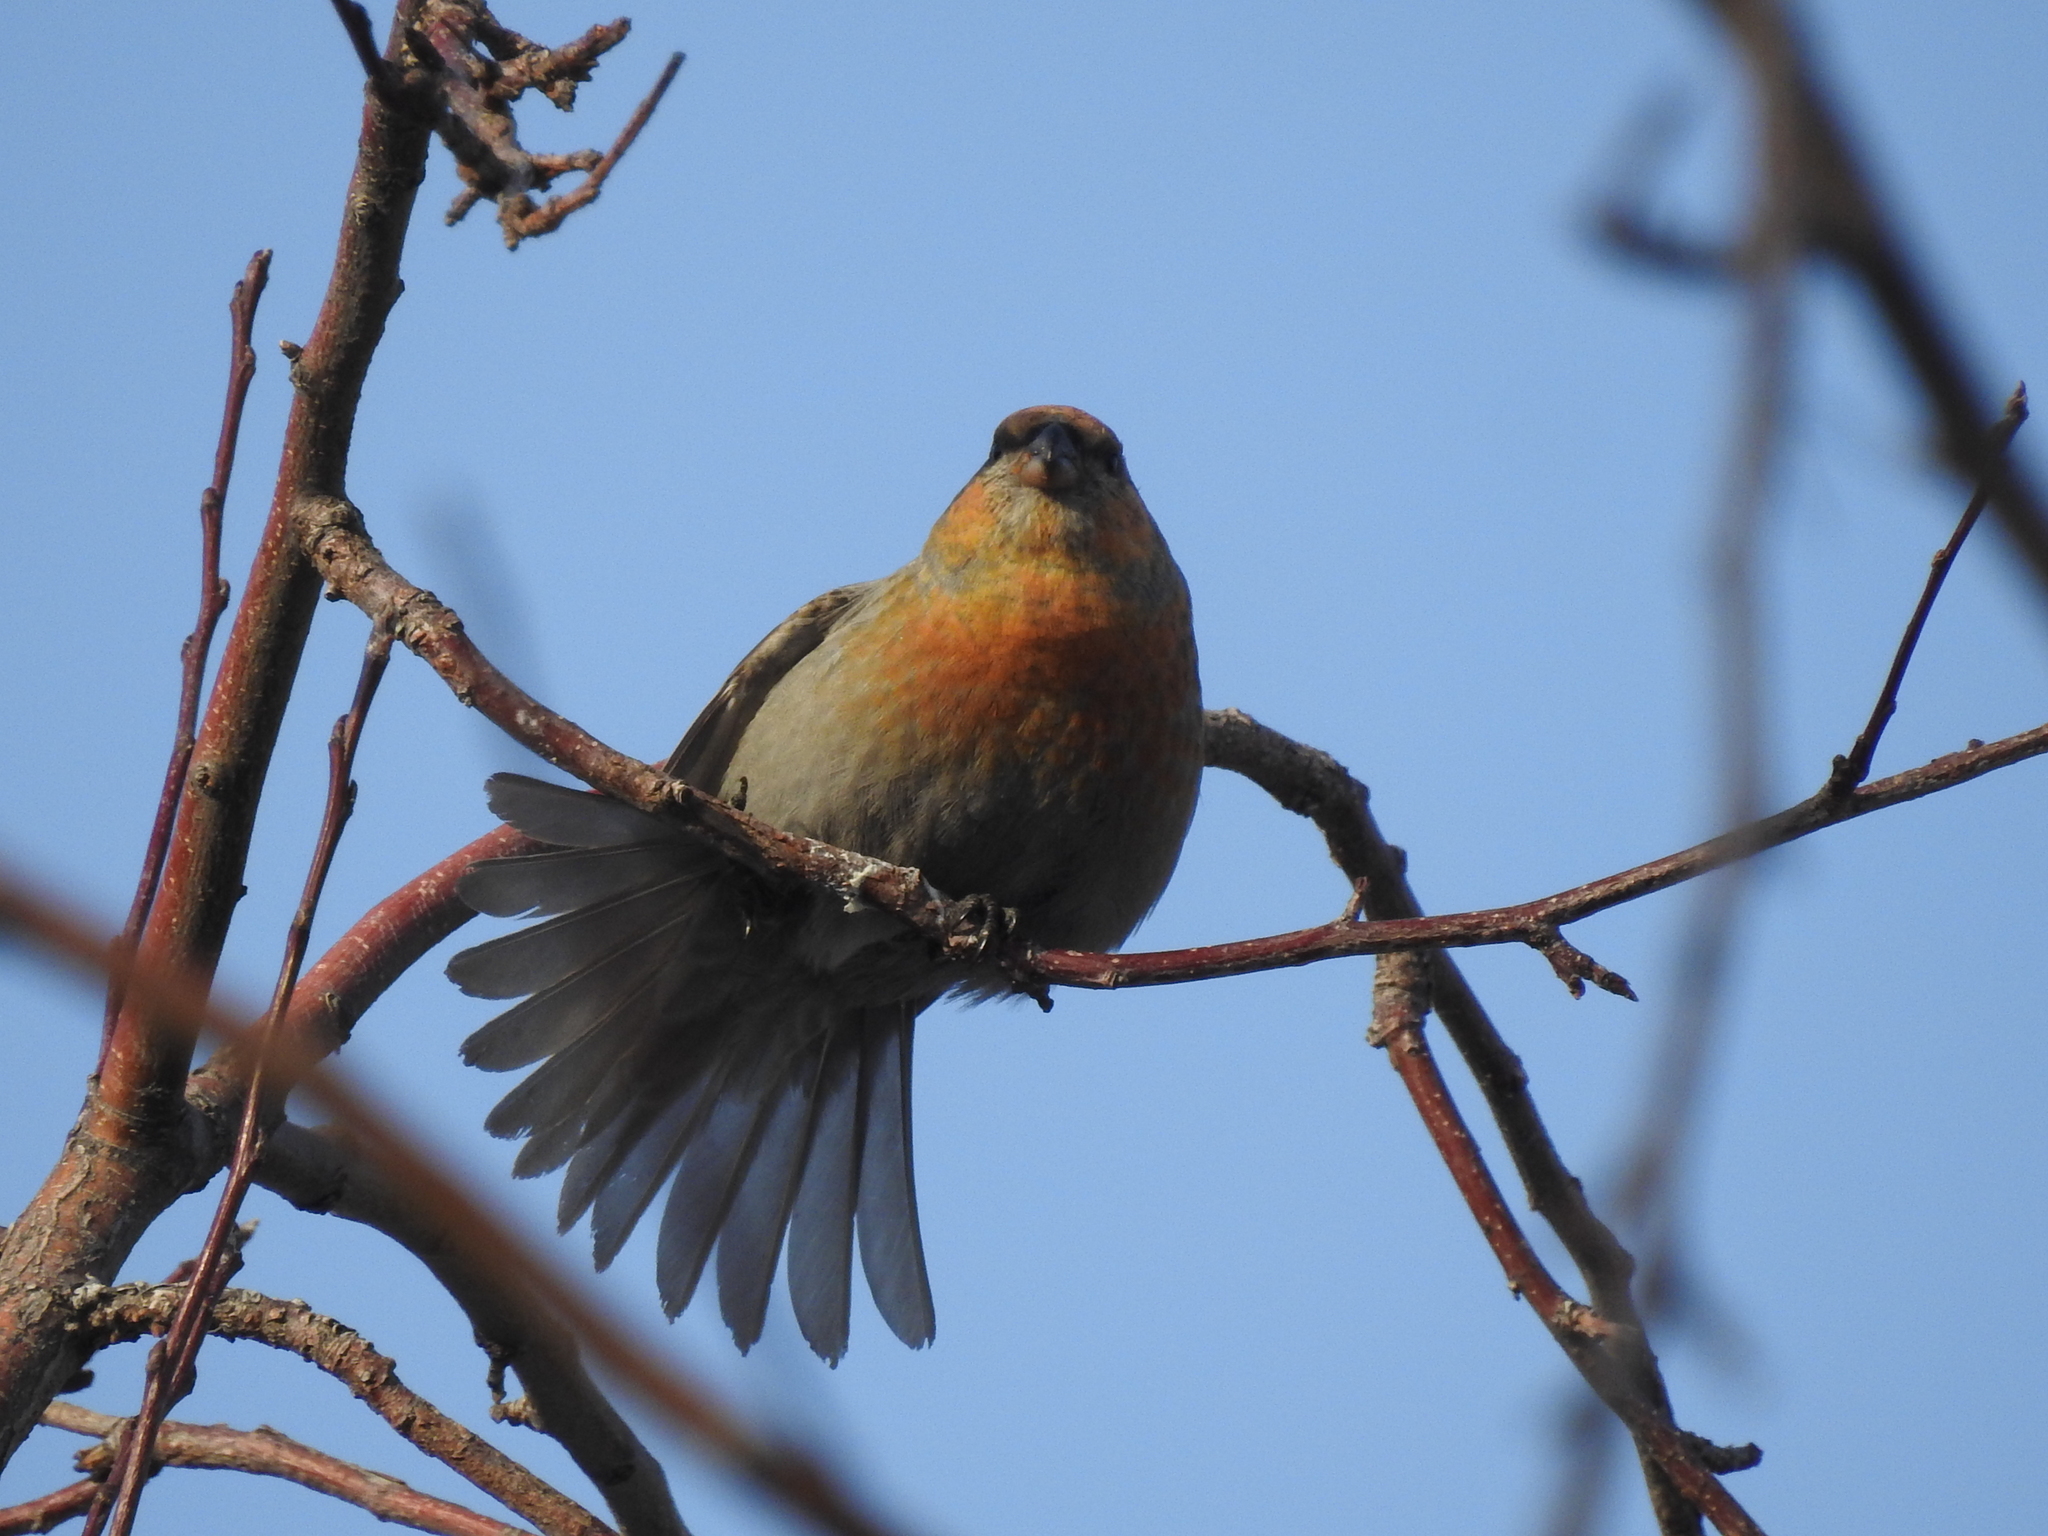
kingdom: Animalia
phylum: Chordata
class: Aves
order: Passeriformes
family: Fringillidae
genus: Pinicola
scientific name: Pinicola enucleator
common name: Pine grosbeak
